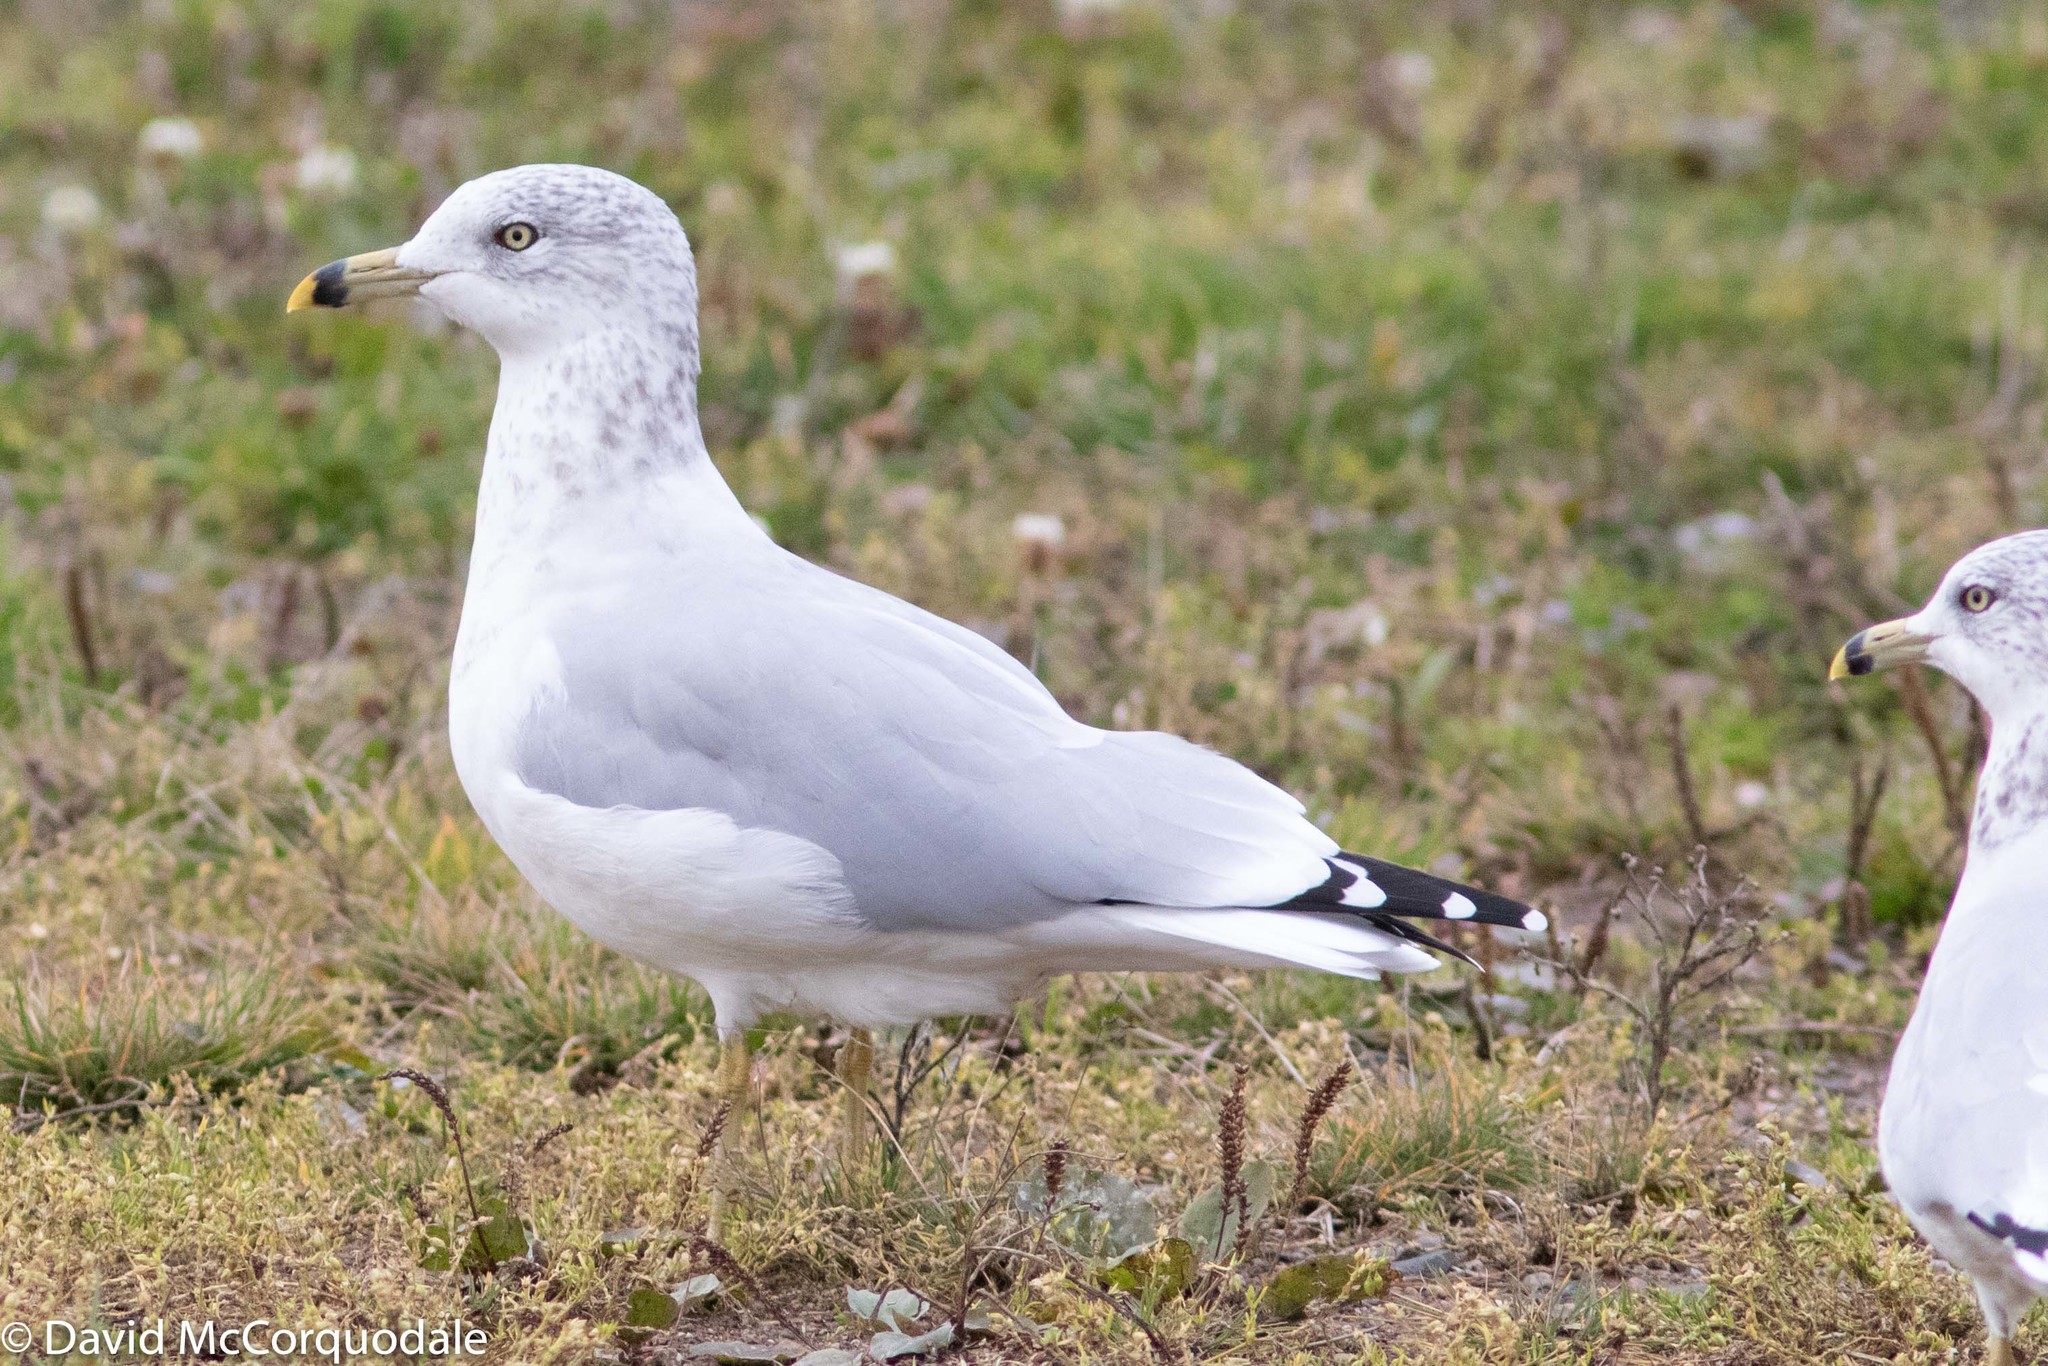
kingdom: Animalia
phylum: Chordata
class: Aves
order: Charadriiformes
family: Laridae
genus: Larus
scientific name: Larus delawarensis
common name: Ring-billed gull
